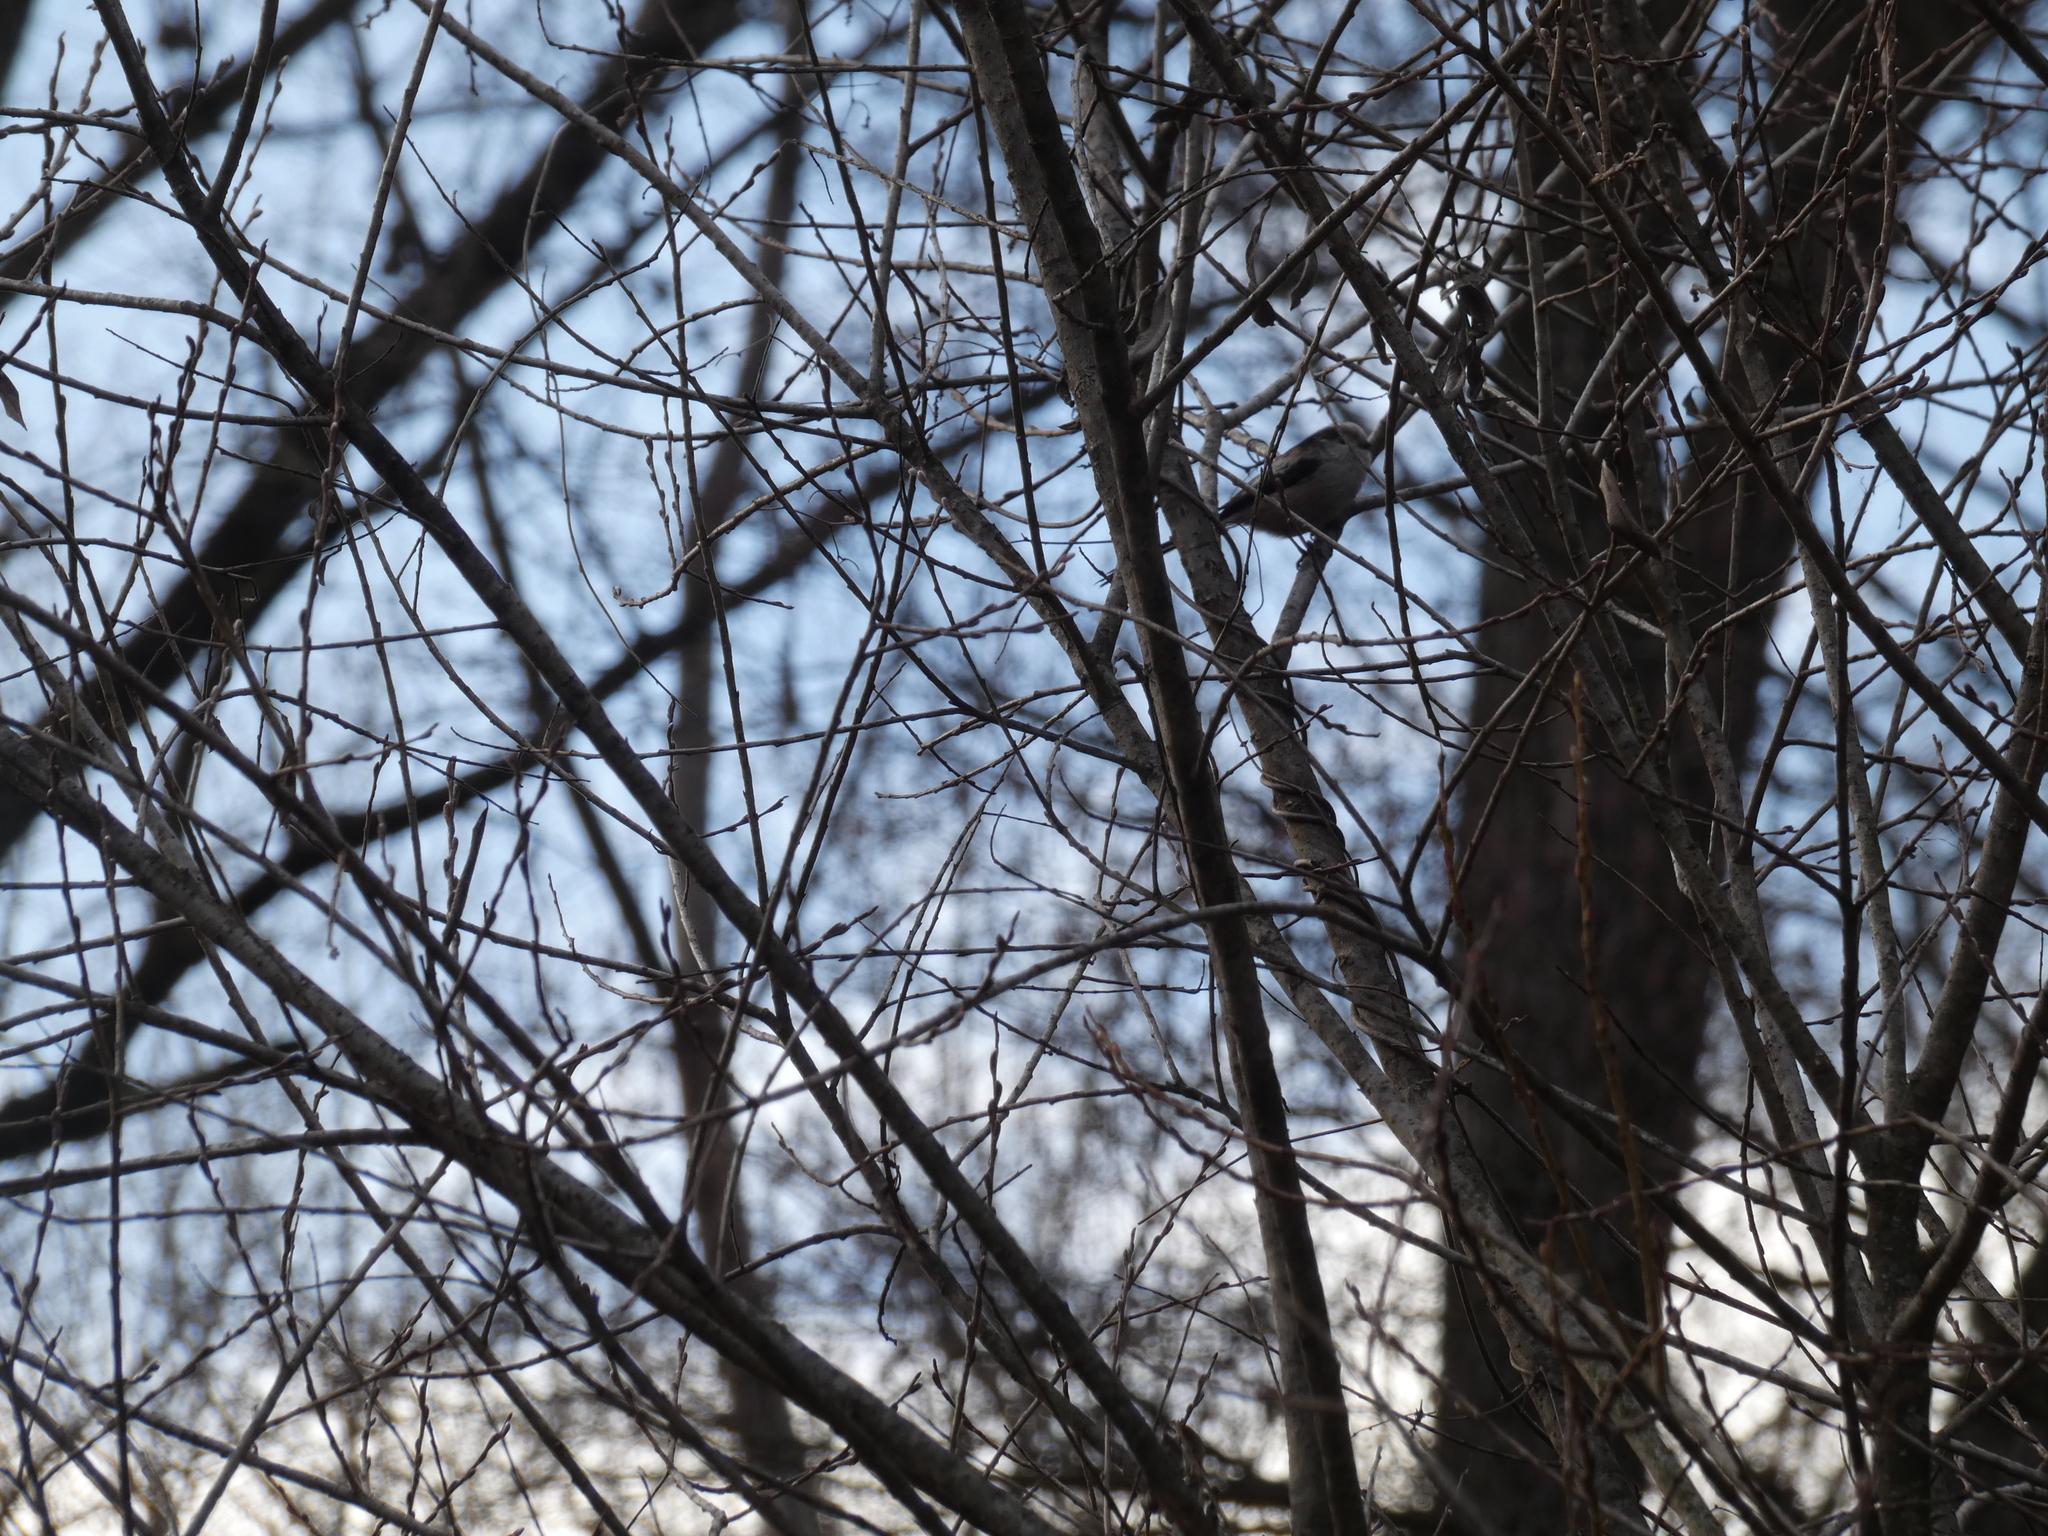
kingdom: Animalia
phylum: Chordata
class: Aves
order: Passeriformes
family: Aegithalidae
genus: Aegithalos
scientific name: Aegithalos caudatus
